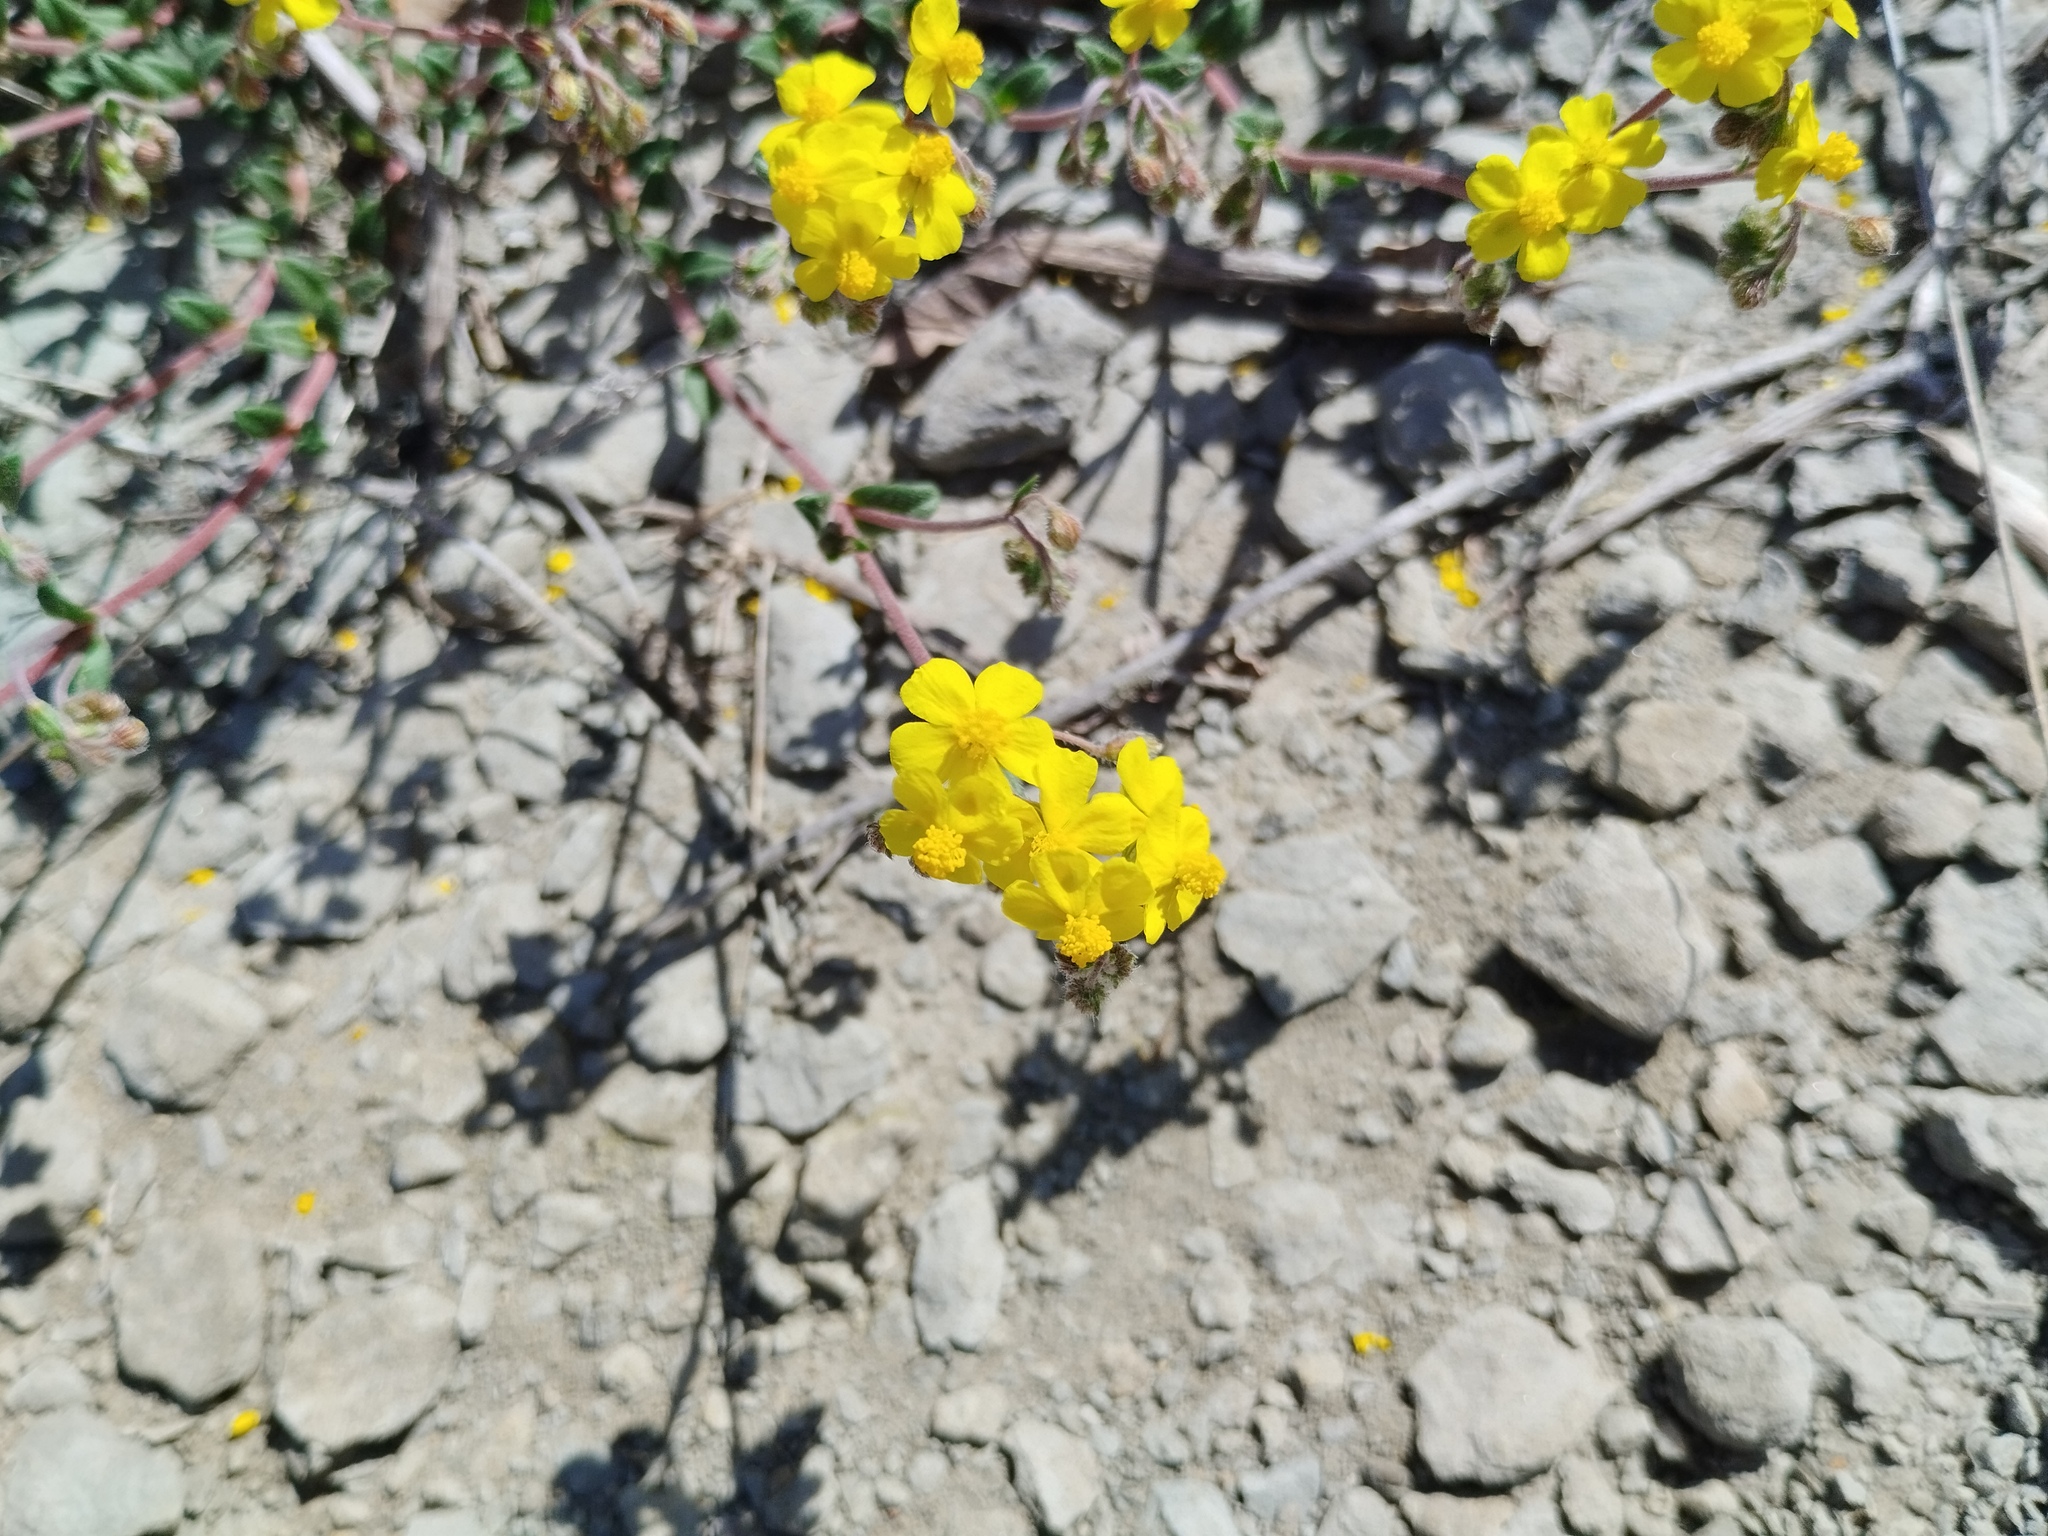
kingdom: Plantae
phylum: Tracheophyta
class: Magnoliopsida
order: Malvales
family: Cistaceae
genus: Helianthemum
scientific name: Helianthemum oelandicum
